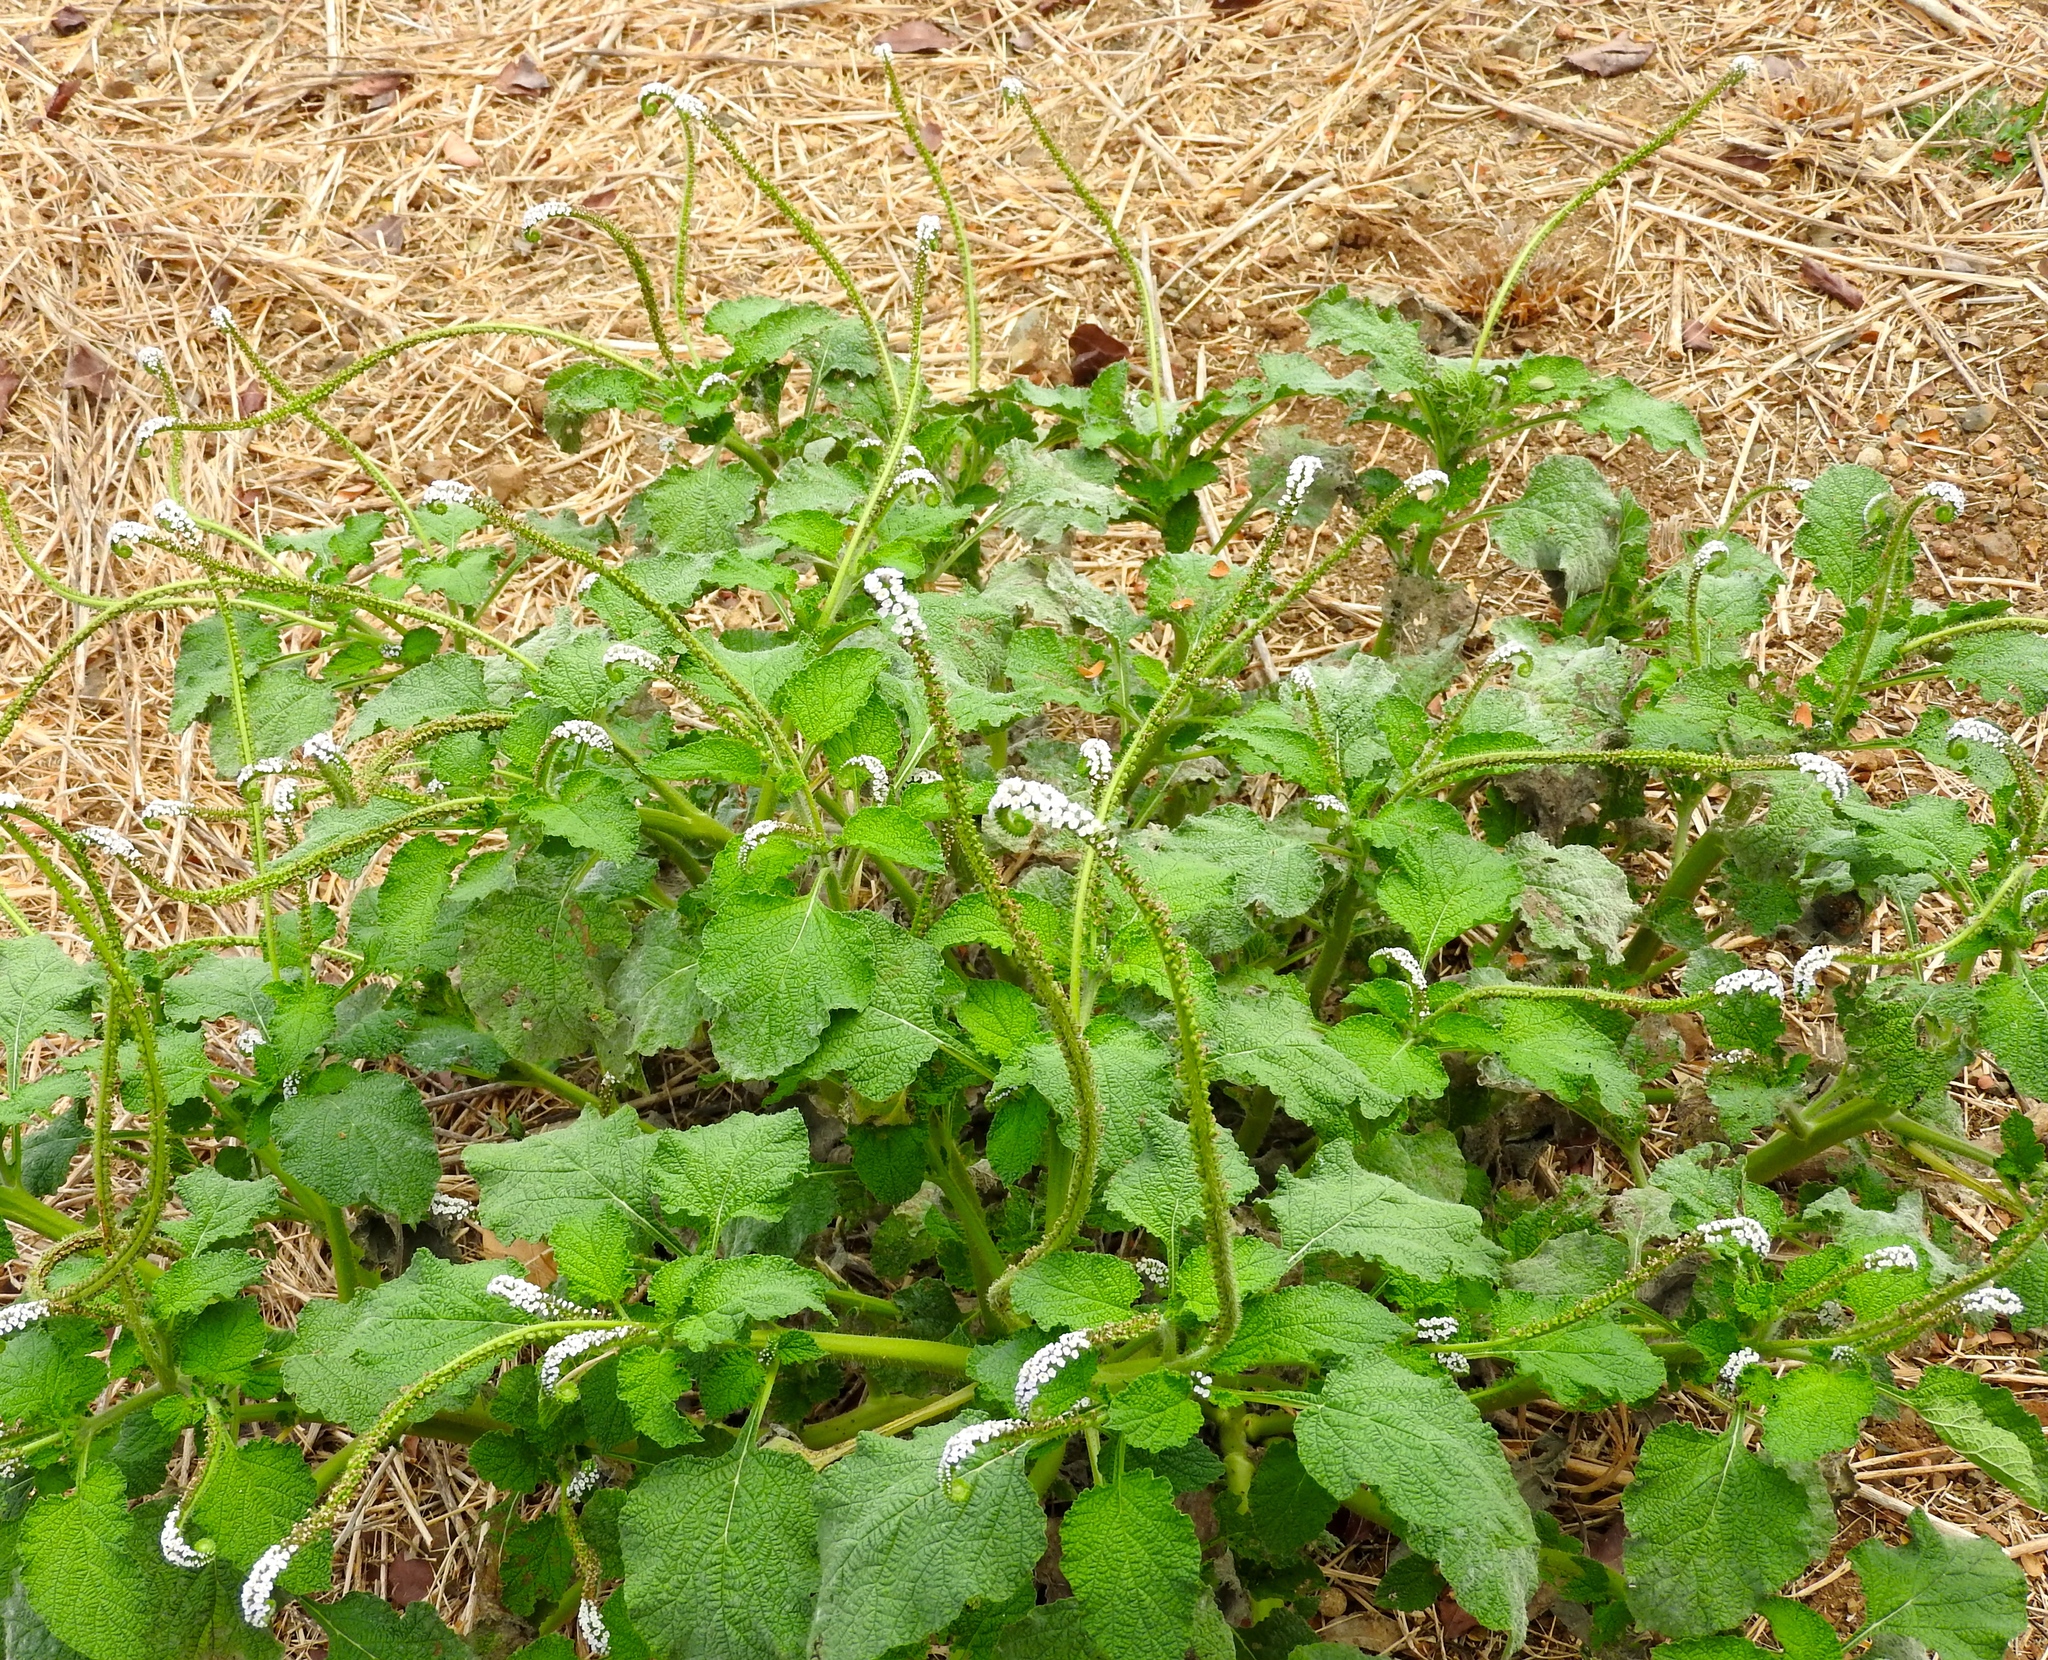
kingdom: Plantae
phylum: Tracheophyta
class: Magnoliopsida
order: Boraginales
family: Heliotropiaceae
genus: Heliotropium
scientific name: Heliotropium indicum
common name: Indian heliotrope
